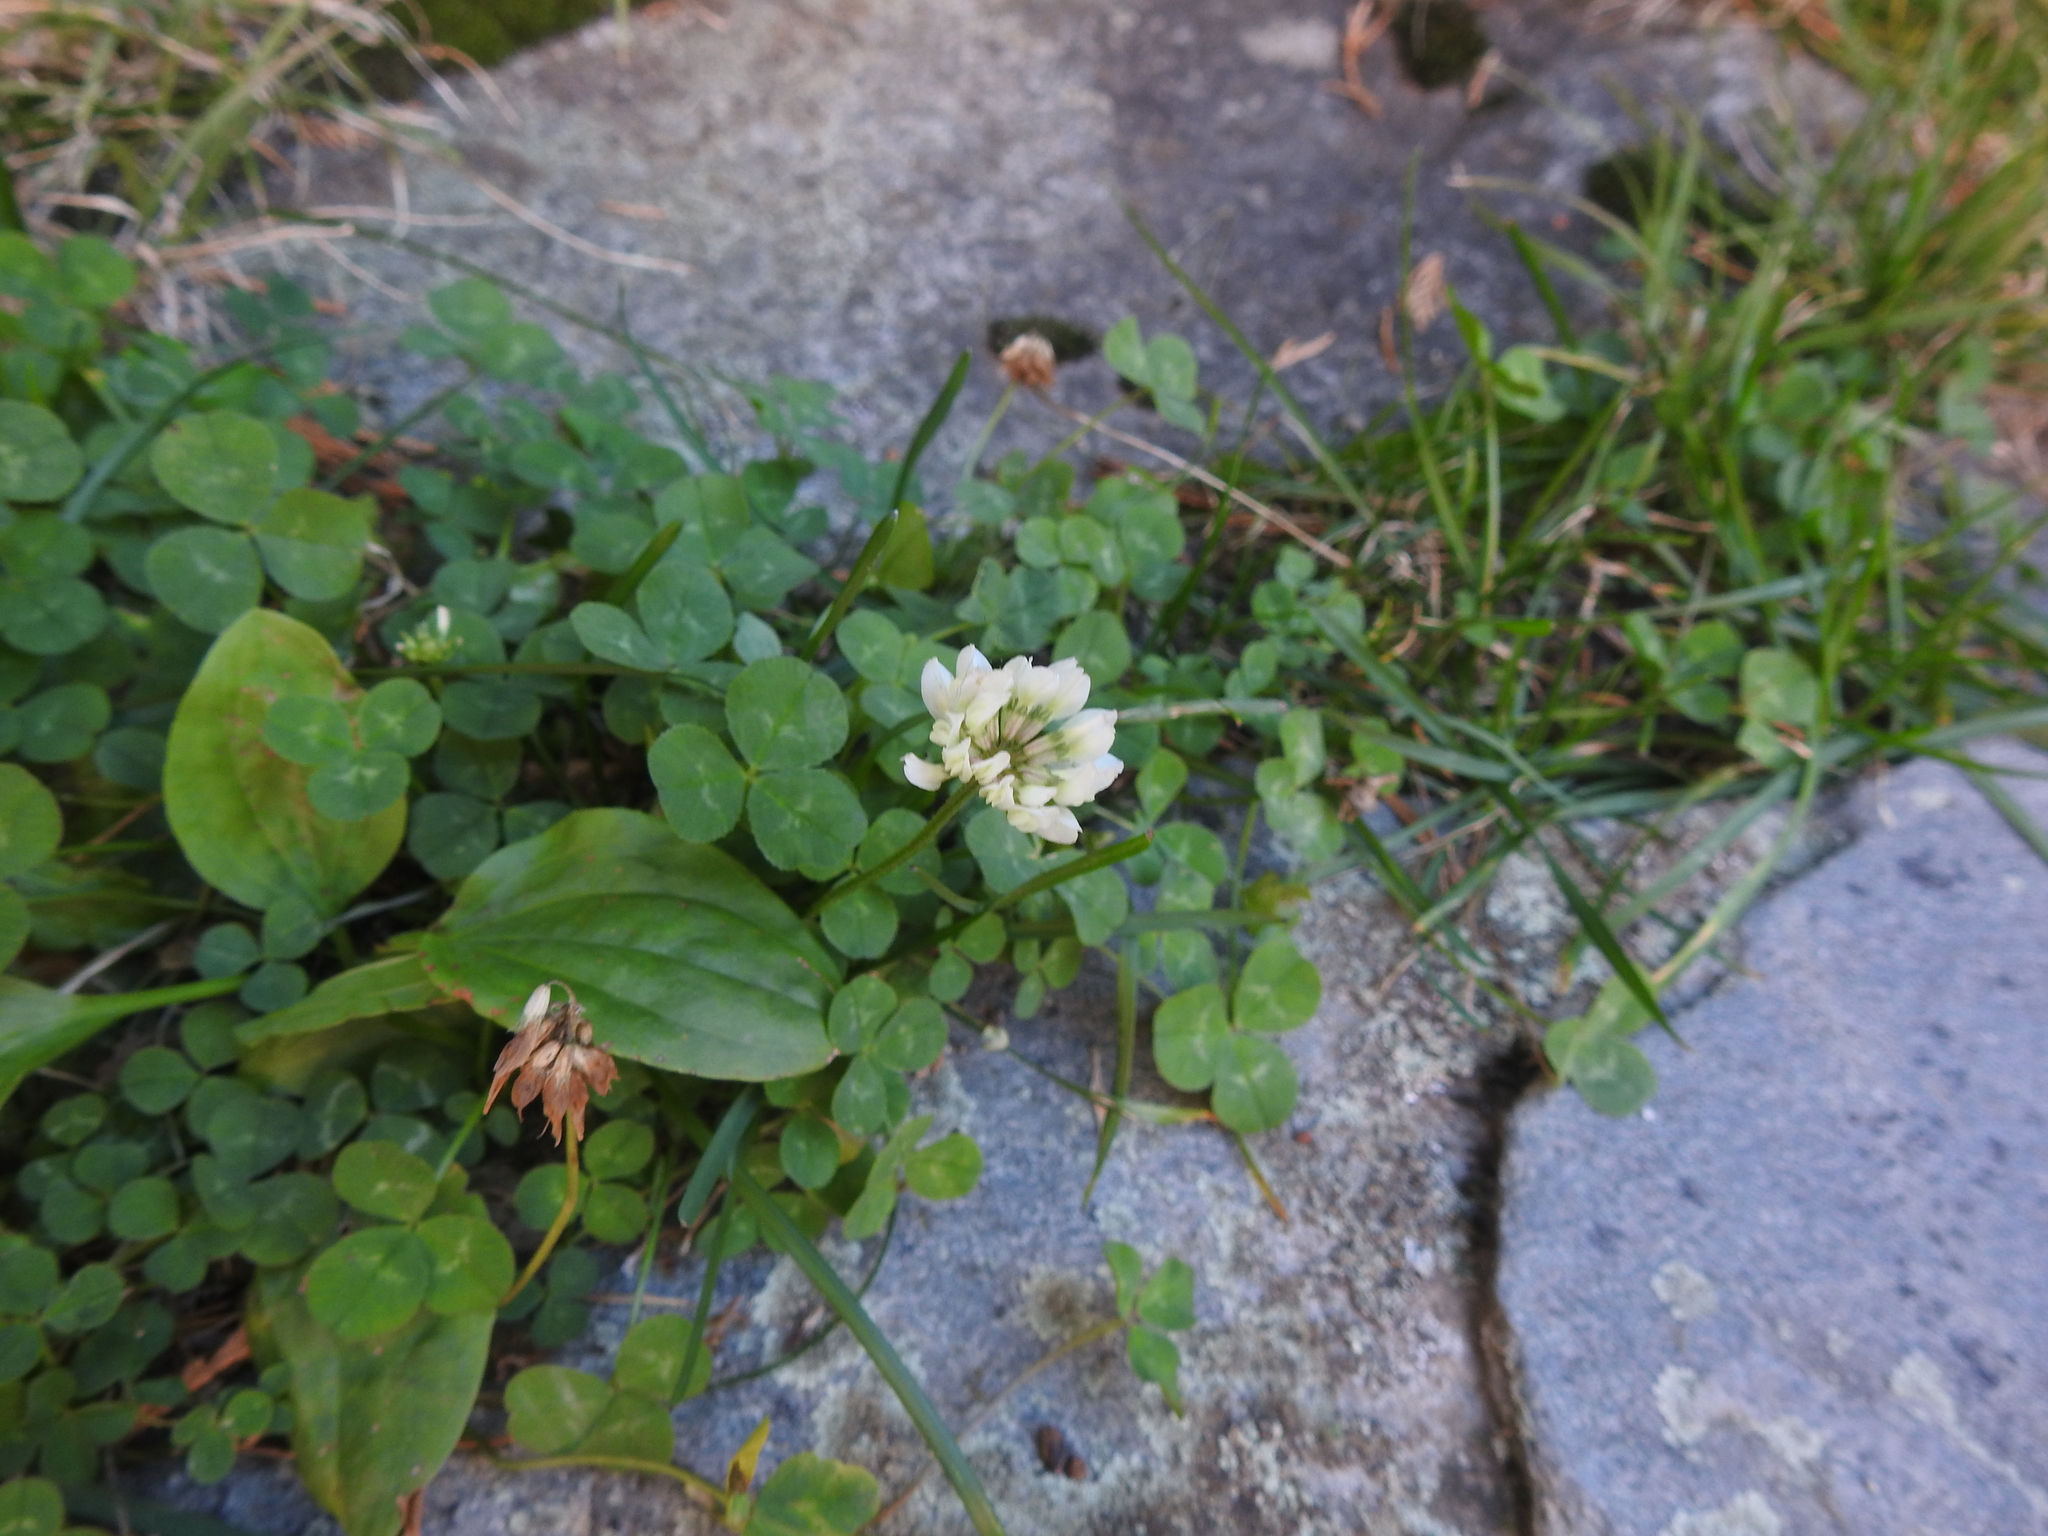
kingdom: Plantae
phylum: Tracheophyta
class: Magnoliopsida
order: Fabales
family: Fabaceae
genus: Trifolium
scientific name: Trifolium repens
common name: White clover
